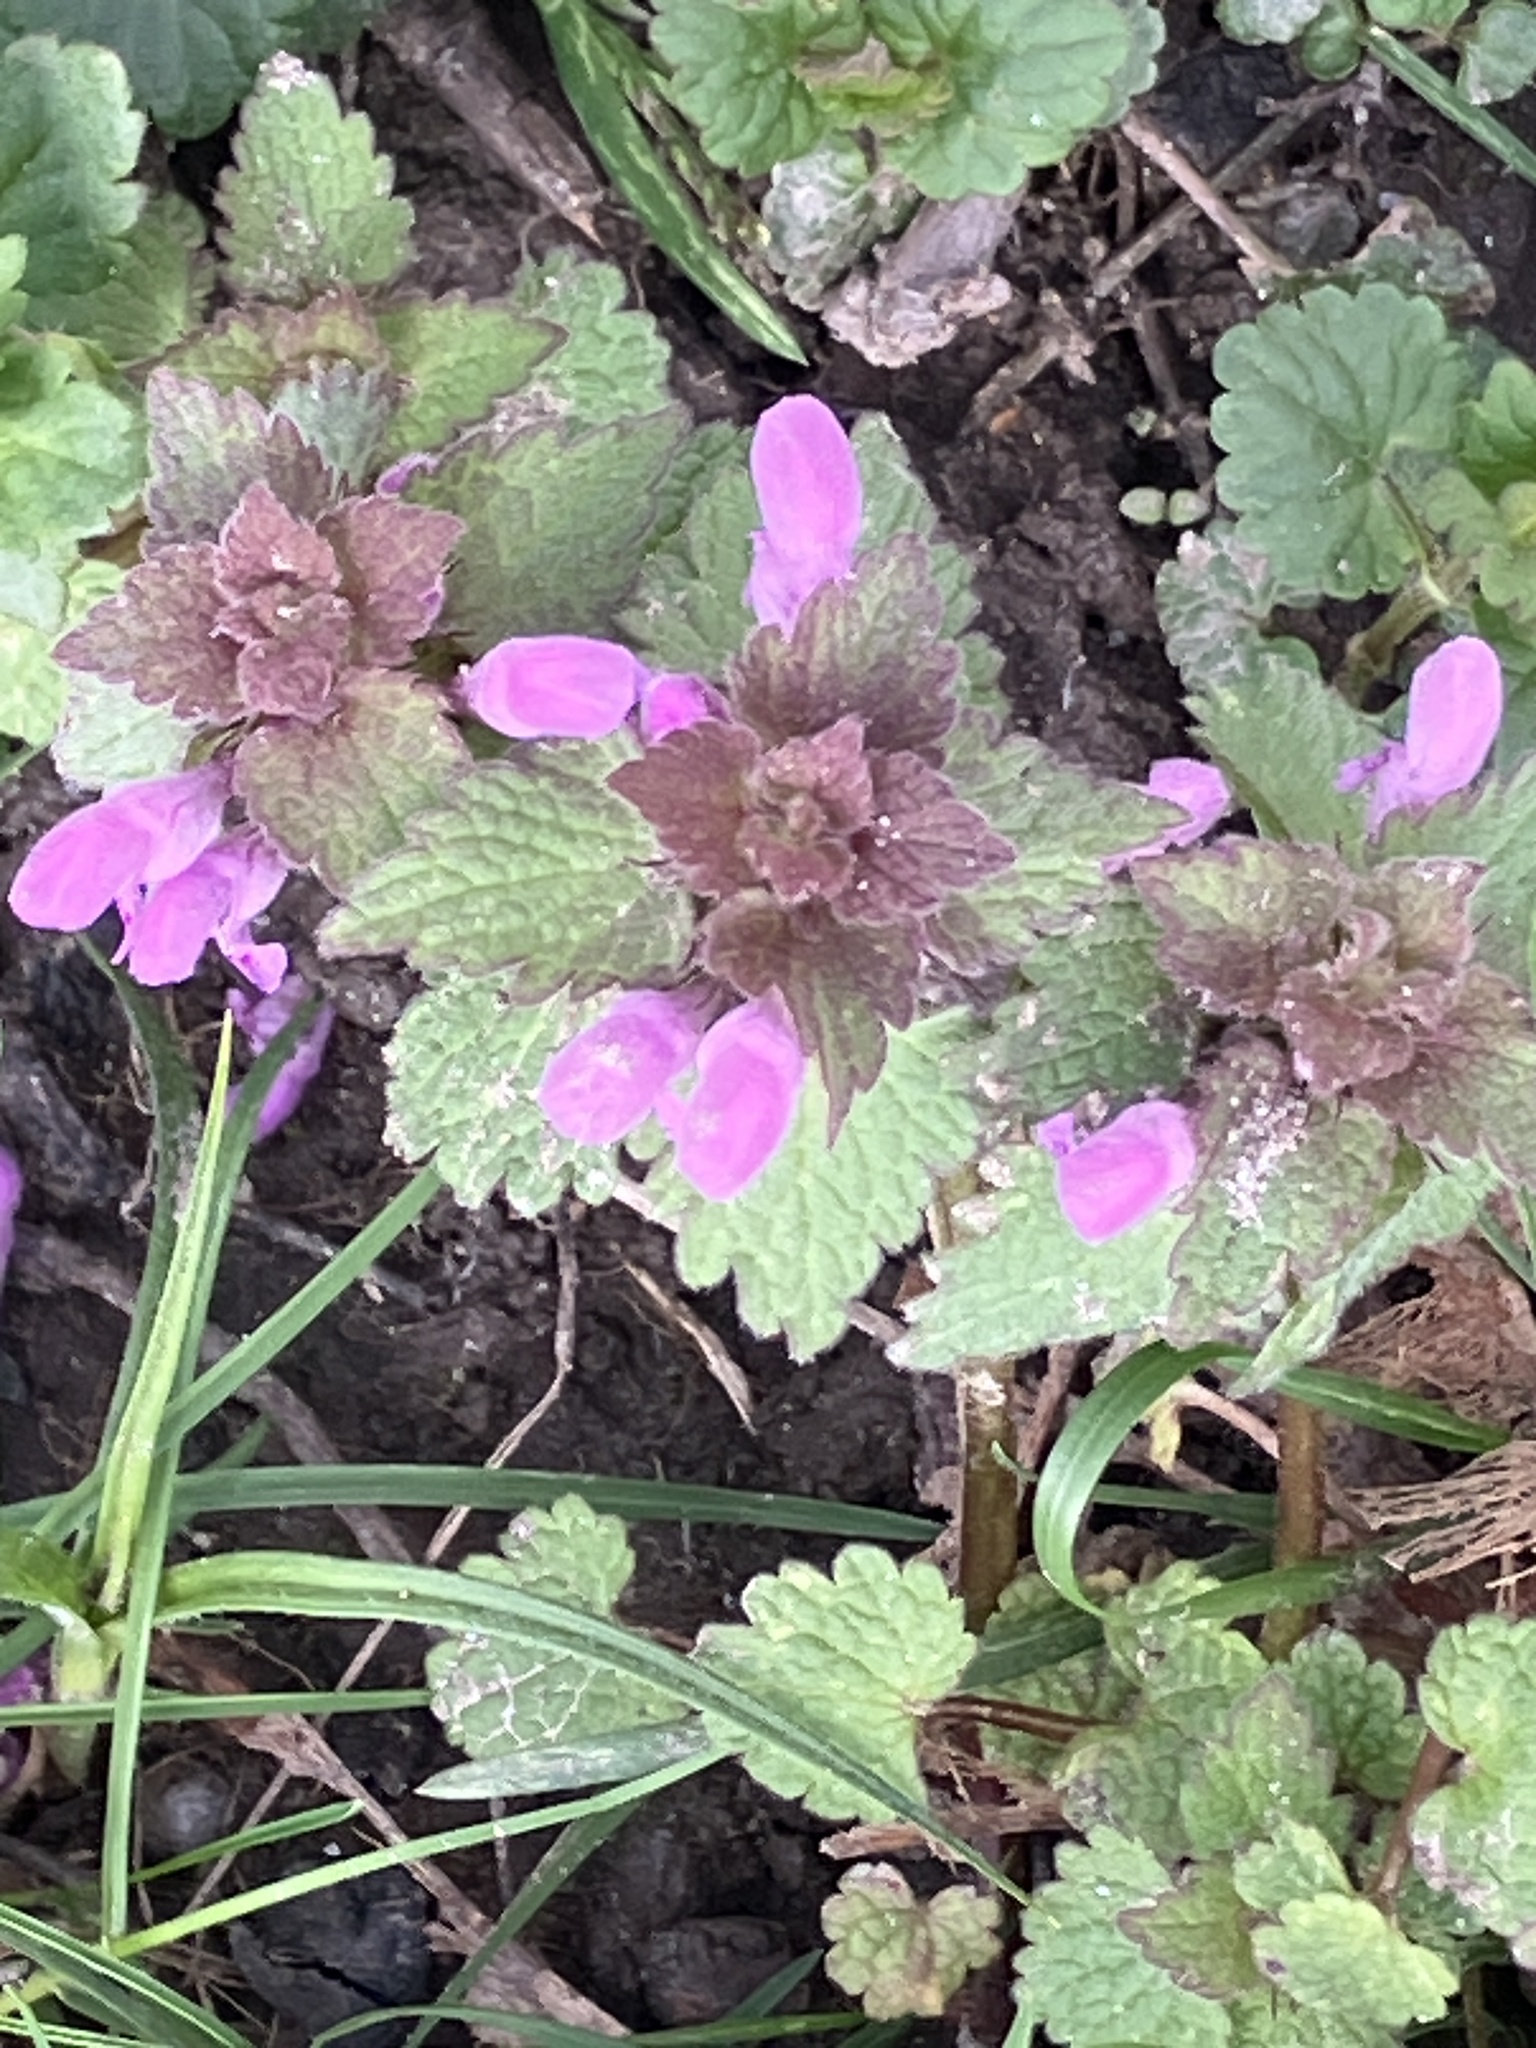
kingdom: Plantae
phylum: Tracheophyta
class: Magnoliopsida
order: Lamiales
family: Lamiaceae
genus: Lamium
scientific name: Lamium purpureum
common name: Red dead-nettle
